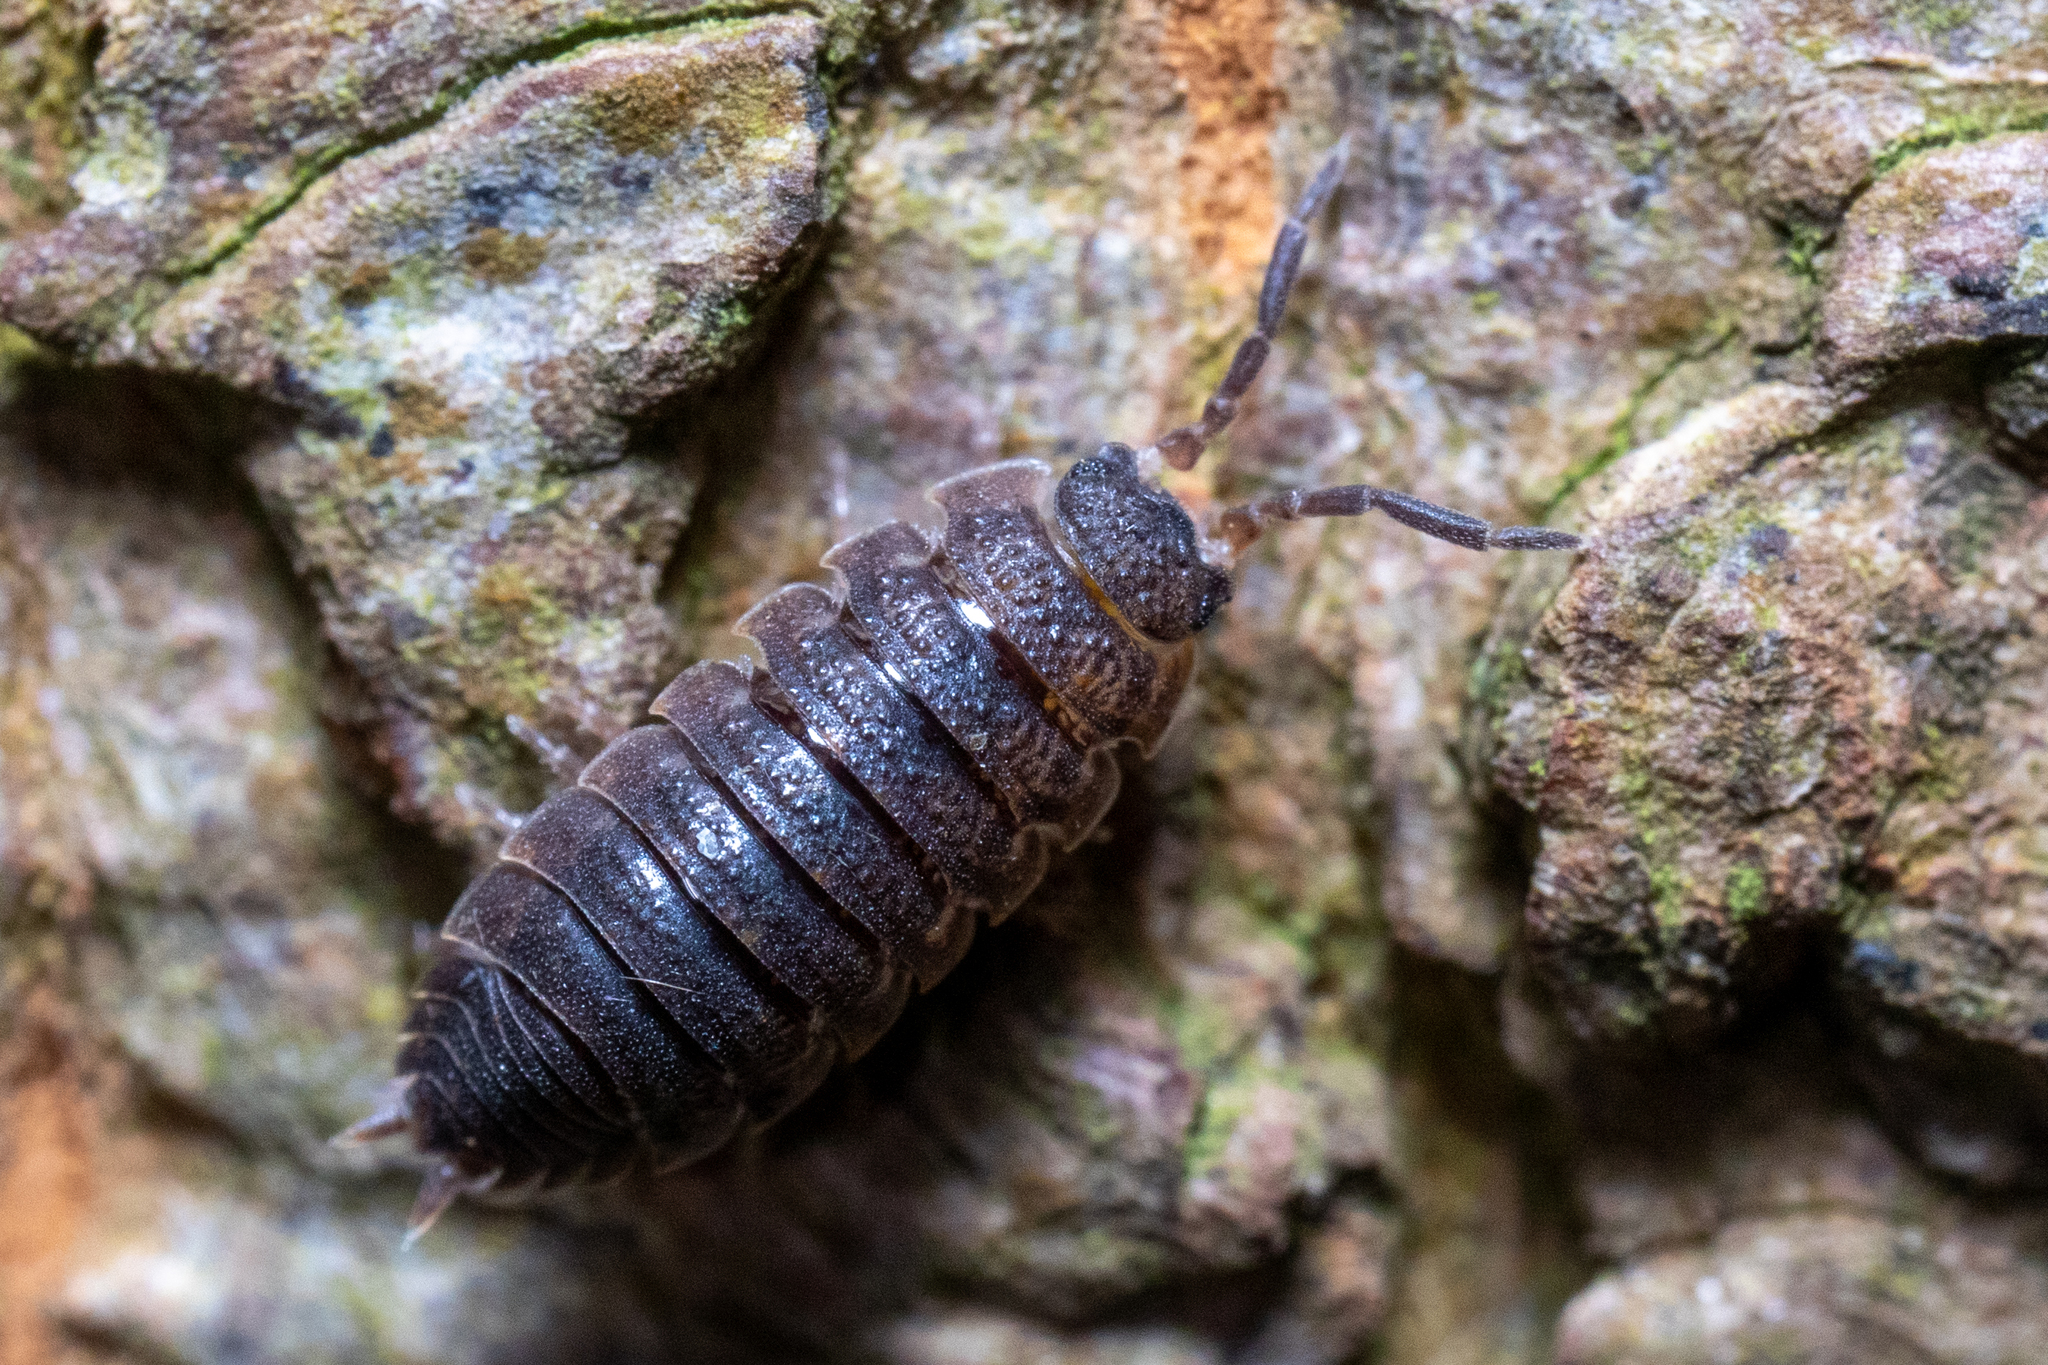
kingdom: Animalia
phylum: Arthropoda
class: Malacostraca
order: Isopoda
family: Porcellionidae
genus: Porcellio
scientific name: Porcellio scaber
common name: Common rough woodlouse
